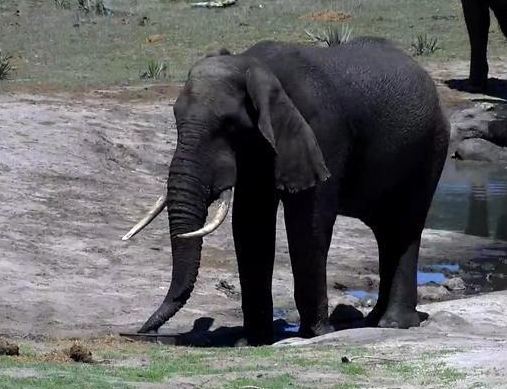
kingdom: Animalia
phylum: Chordata
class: Mammalia
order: Proboscidea
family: Elephantidae
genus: Loxodonta
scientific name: Loxodonta africana
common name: African elephant
